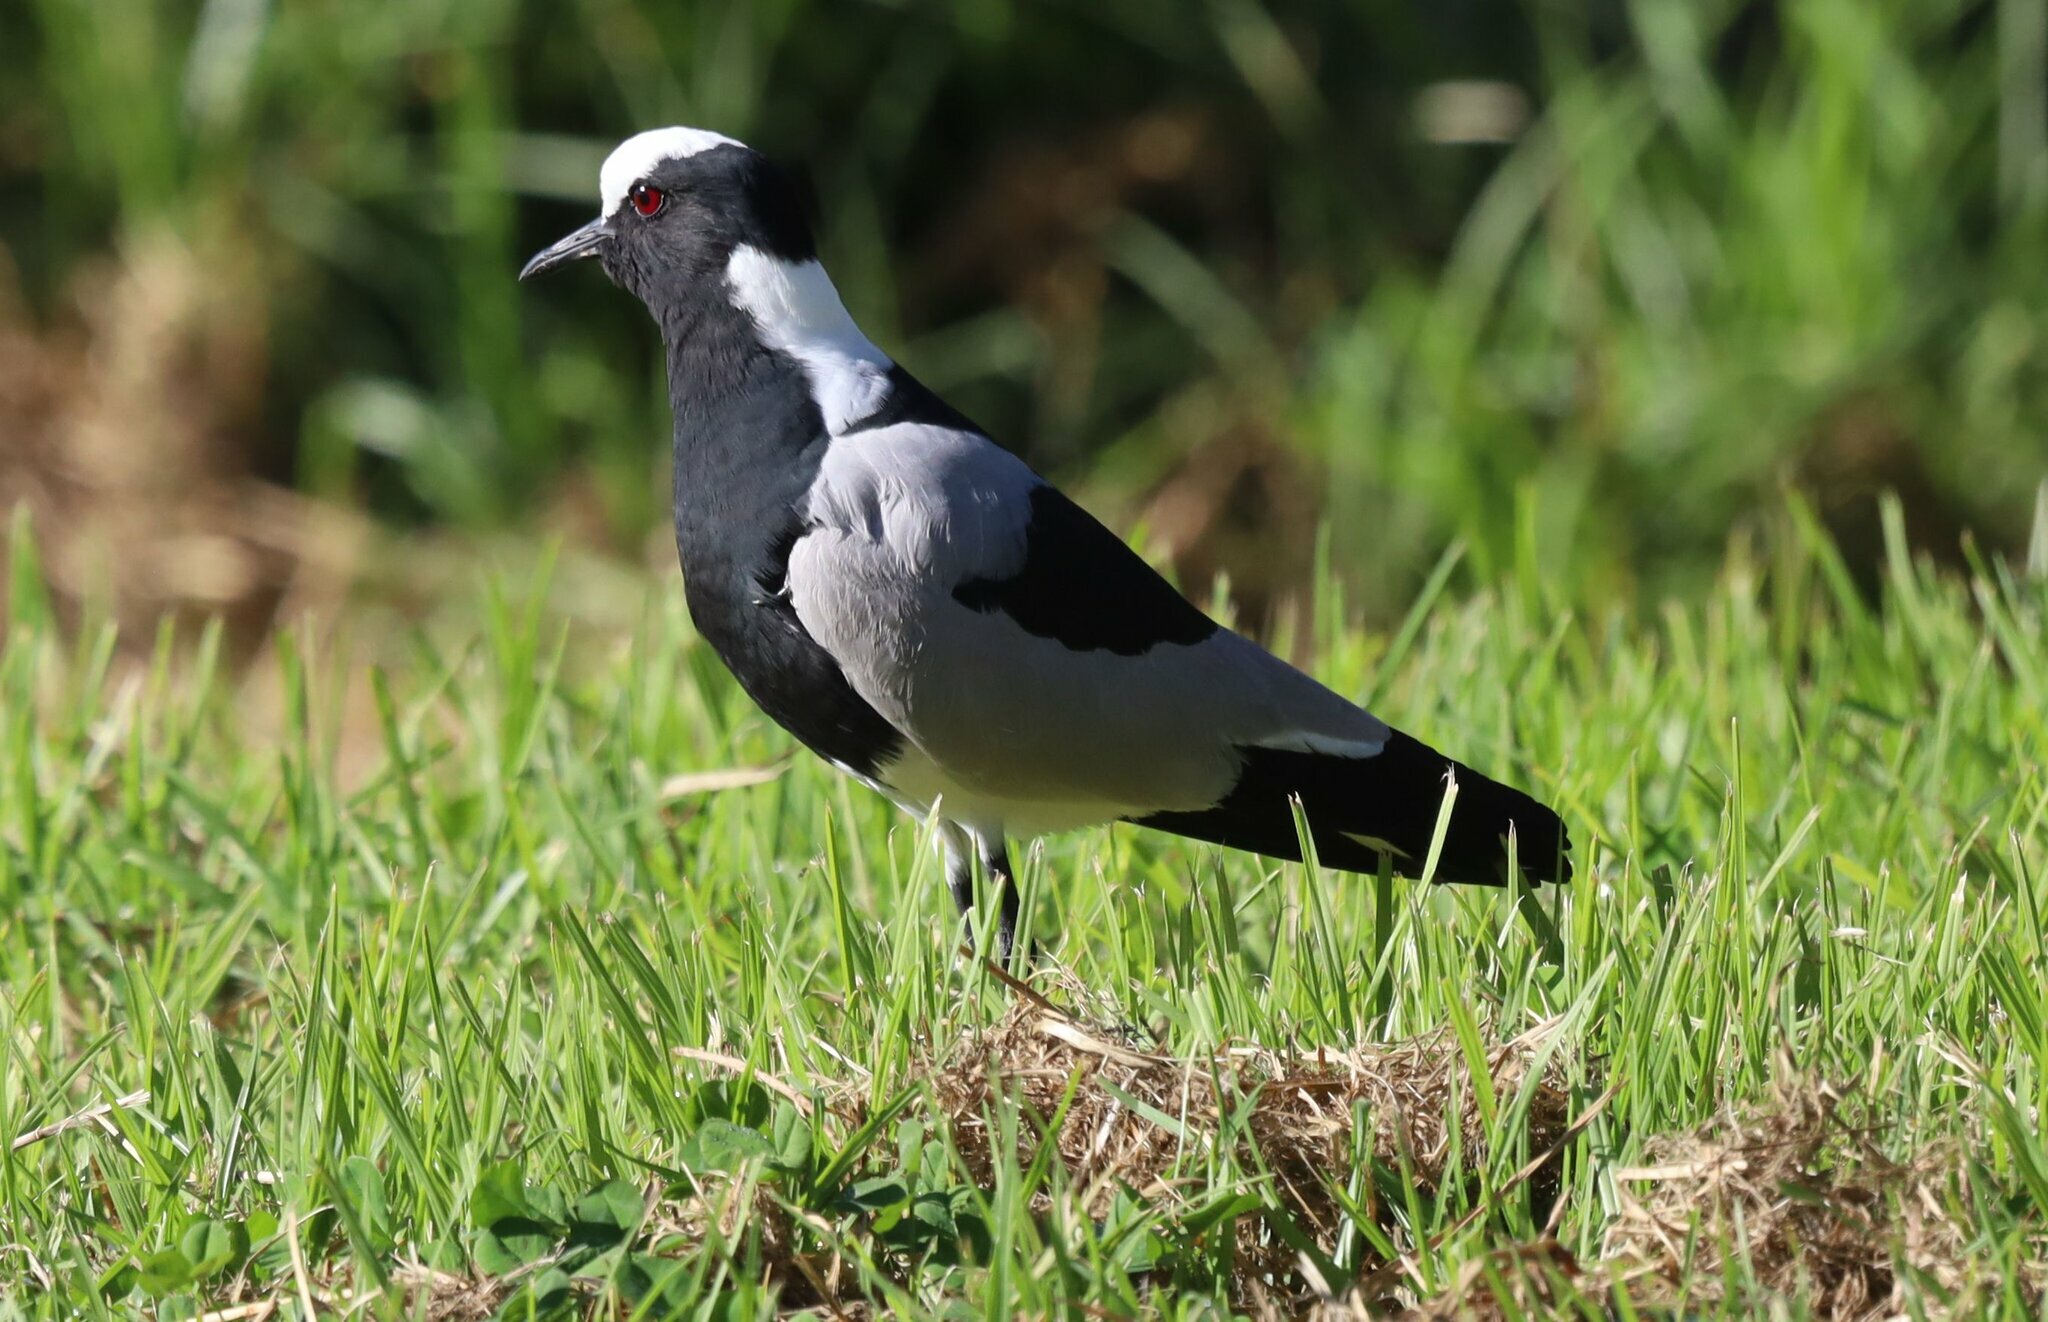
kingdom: Animalia
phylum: Chordata
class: Aves
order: Charadriiformes
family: Charadriidae
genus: Vanellus
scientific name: Vanellus armatus
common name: Blacksmith lapwing
